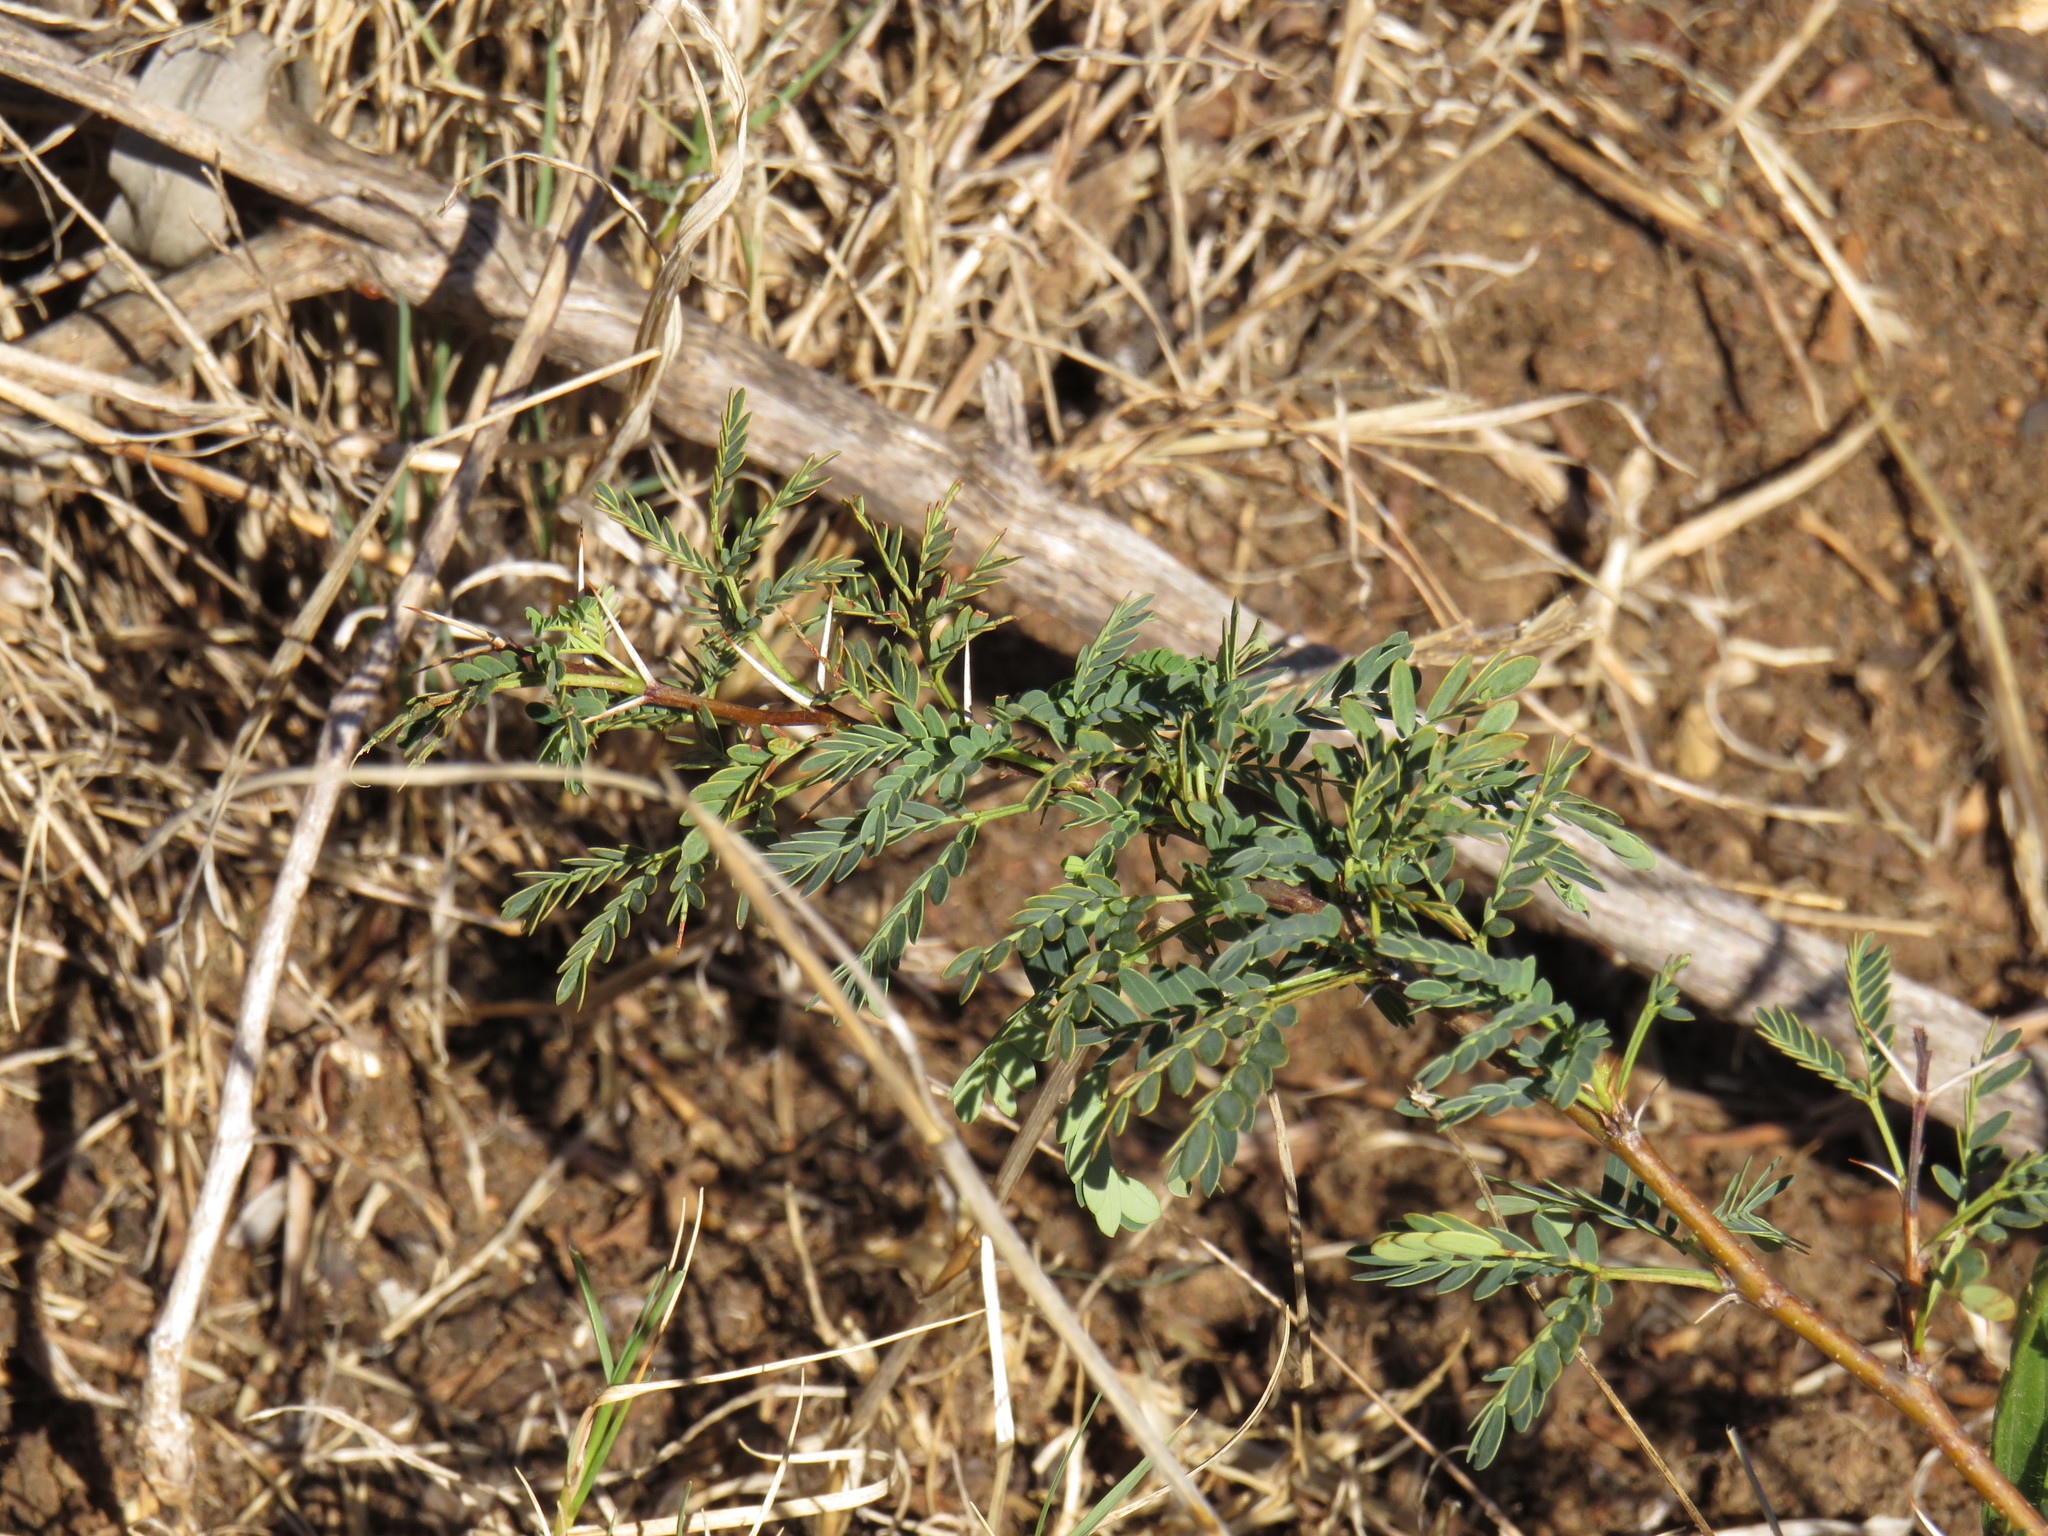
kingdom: Plantae
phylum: Tracheophyta
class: Magnoliopsida
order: Fabales
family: Fabaceae
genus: Vachellia
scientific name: Vachellia karroo
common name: Sweet thorn
